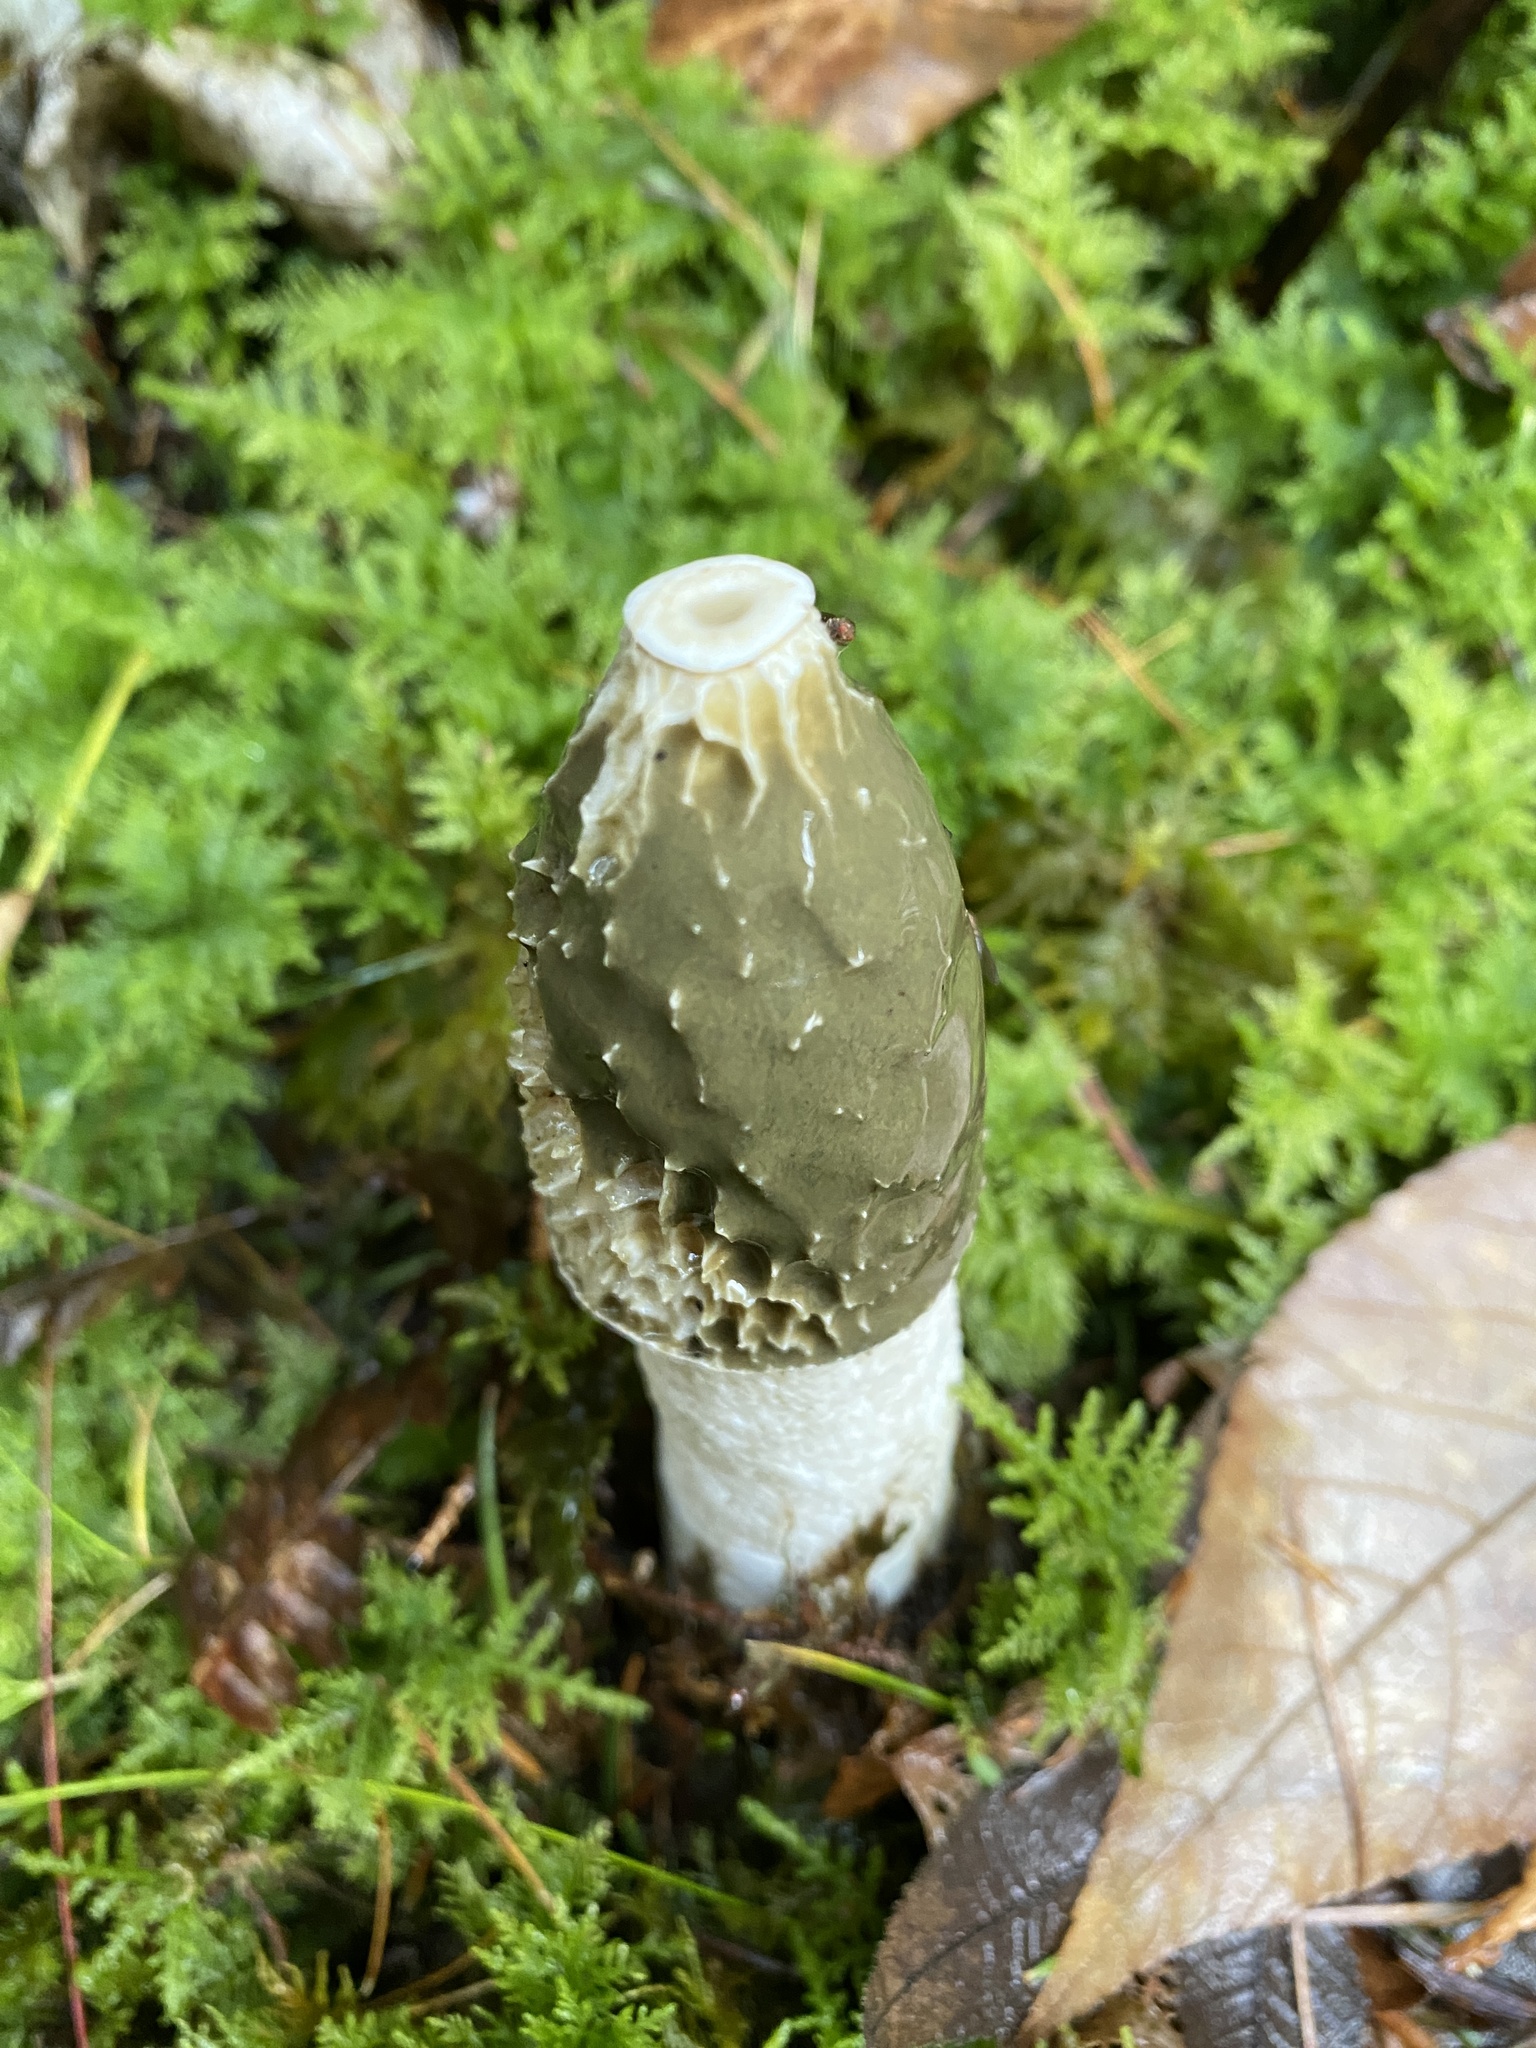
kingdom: Fungi
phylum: Basidiomycota
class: Agaricomycetes
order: Phallales
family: Phallaceae
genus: Phallus
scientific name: Phallus impudicus
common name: Common stinkhorn
